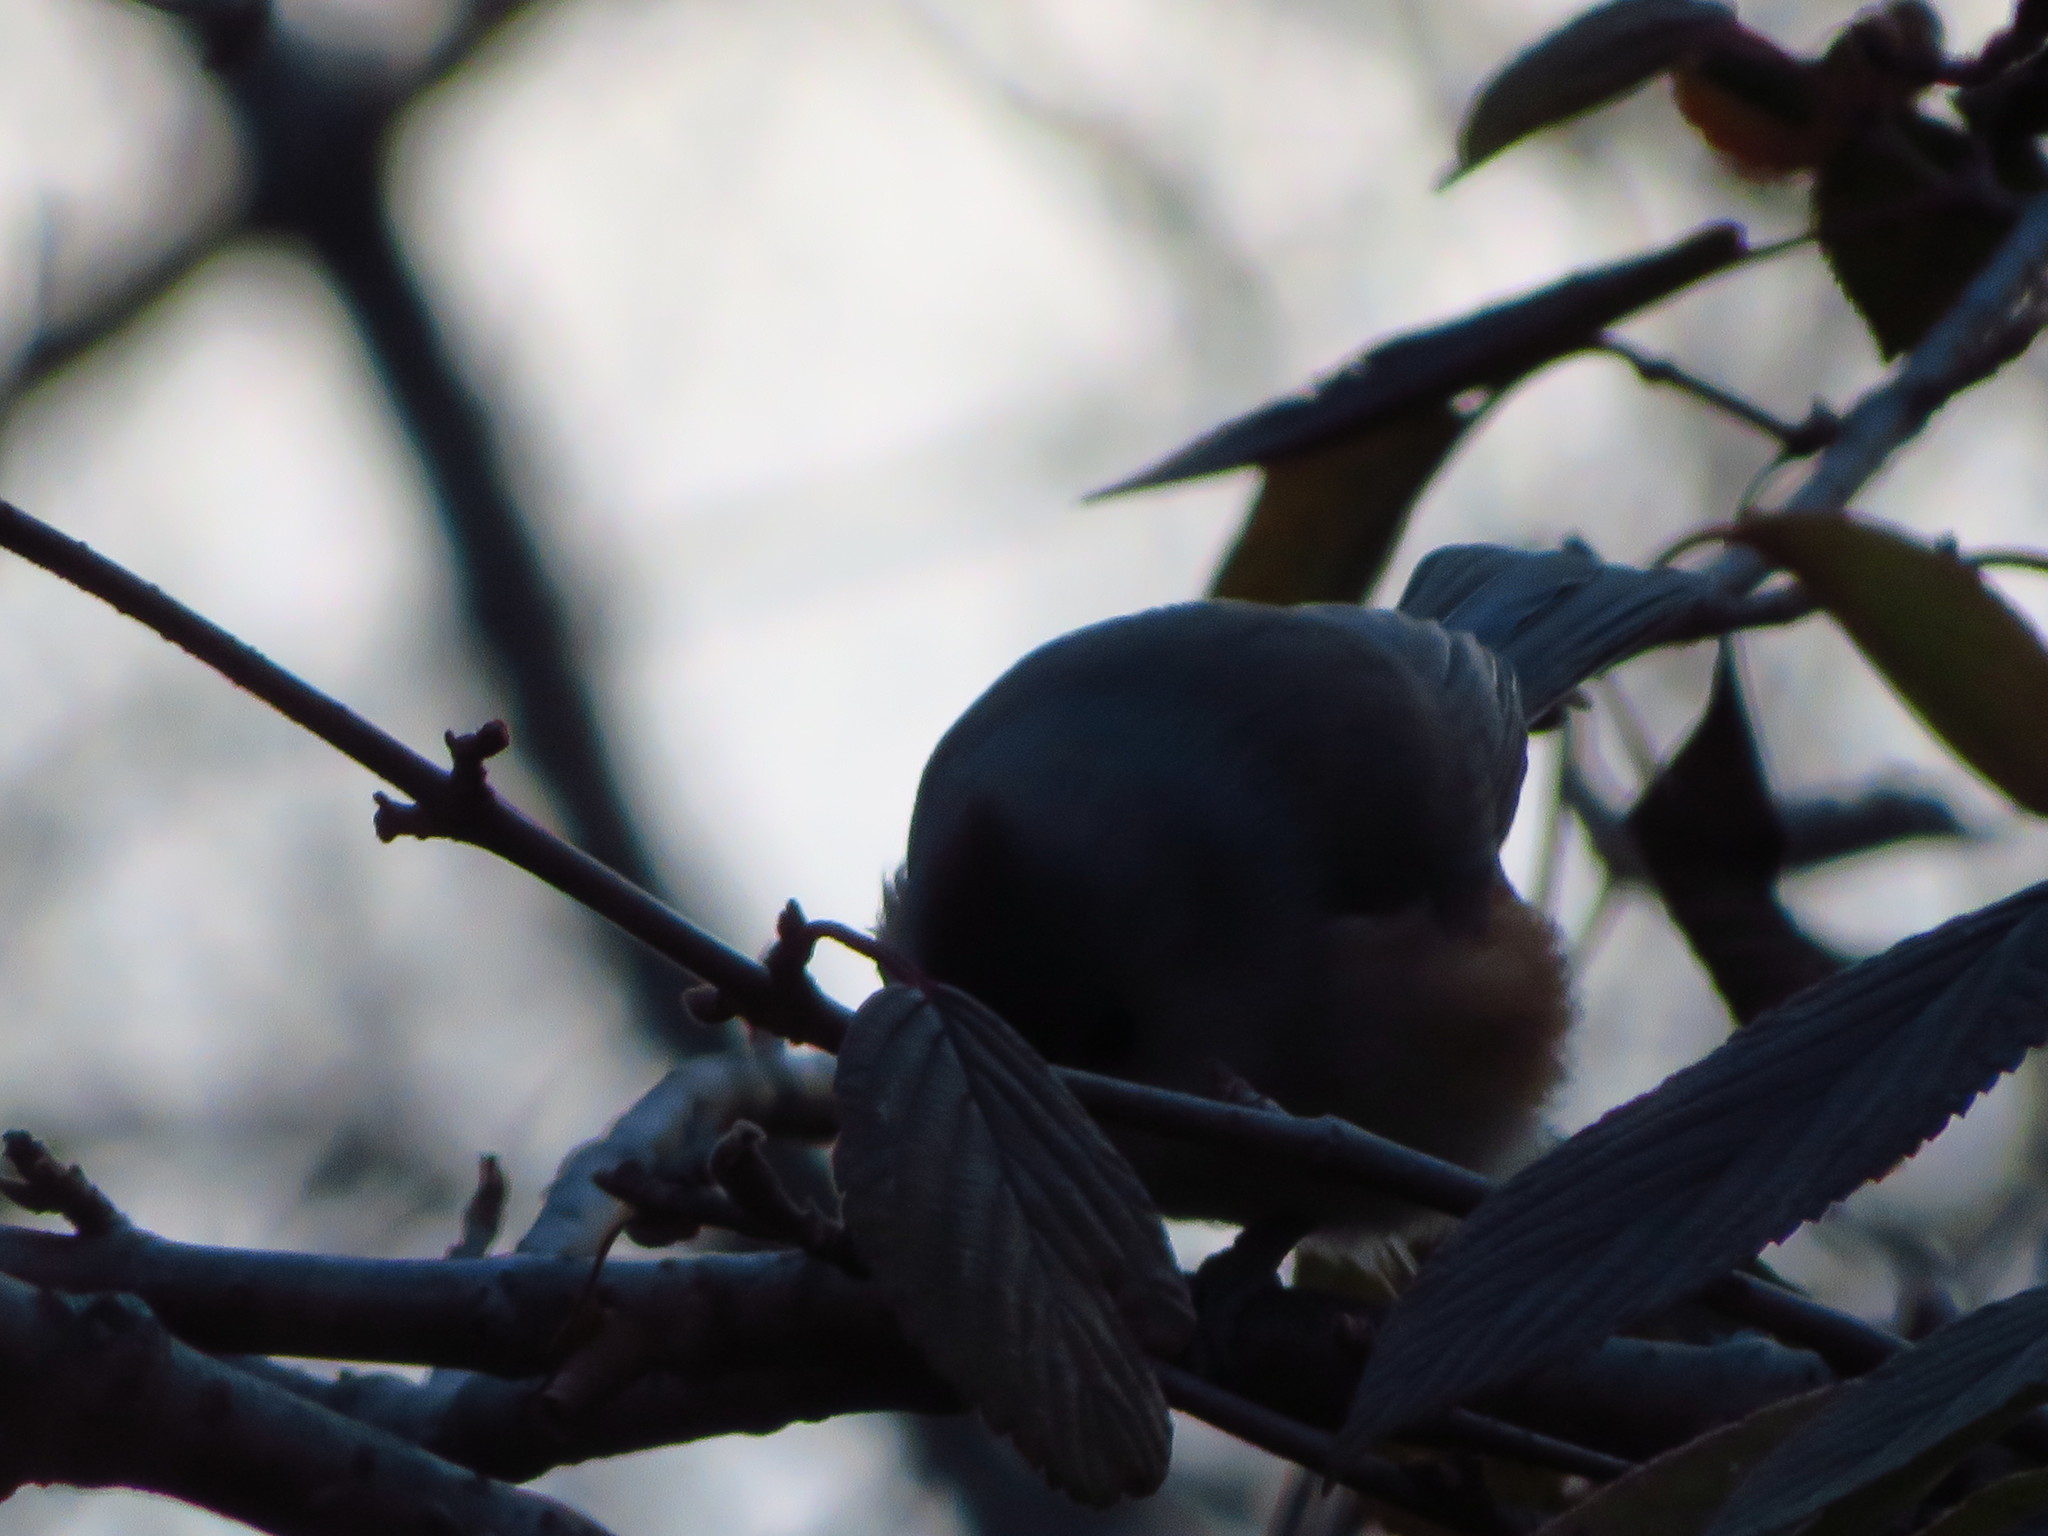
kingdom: Animalia
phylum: Chordata
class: Aves
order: Passeriformes
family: Paridae
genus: Baeolophus
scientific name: Baeolophus bicolor
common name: Tufted titmouse
